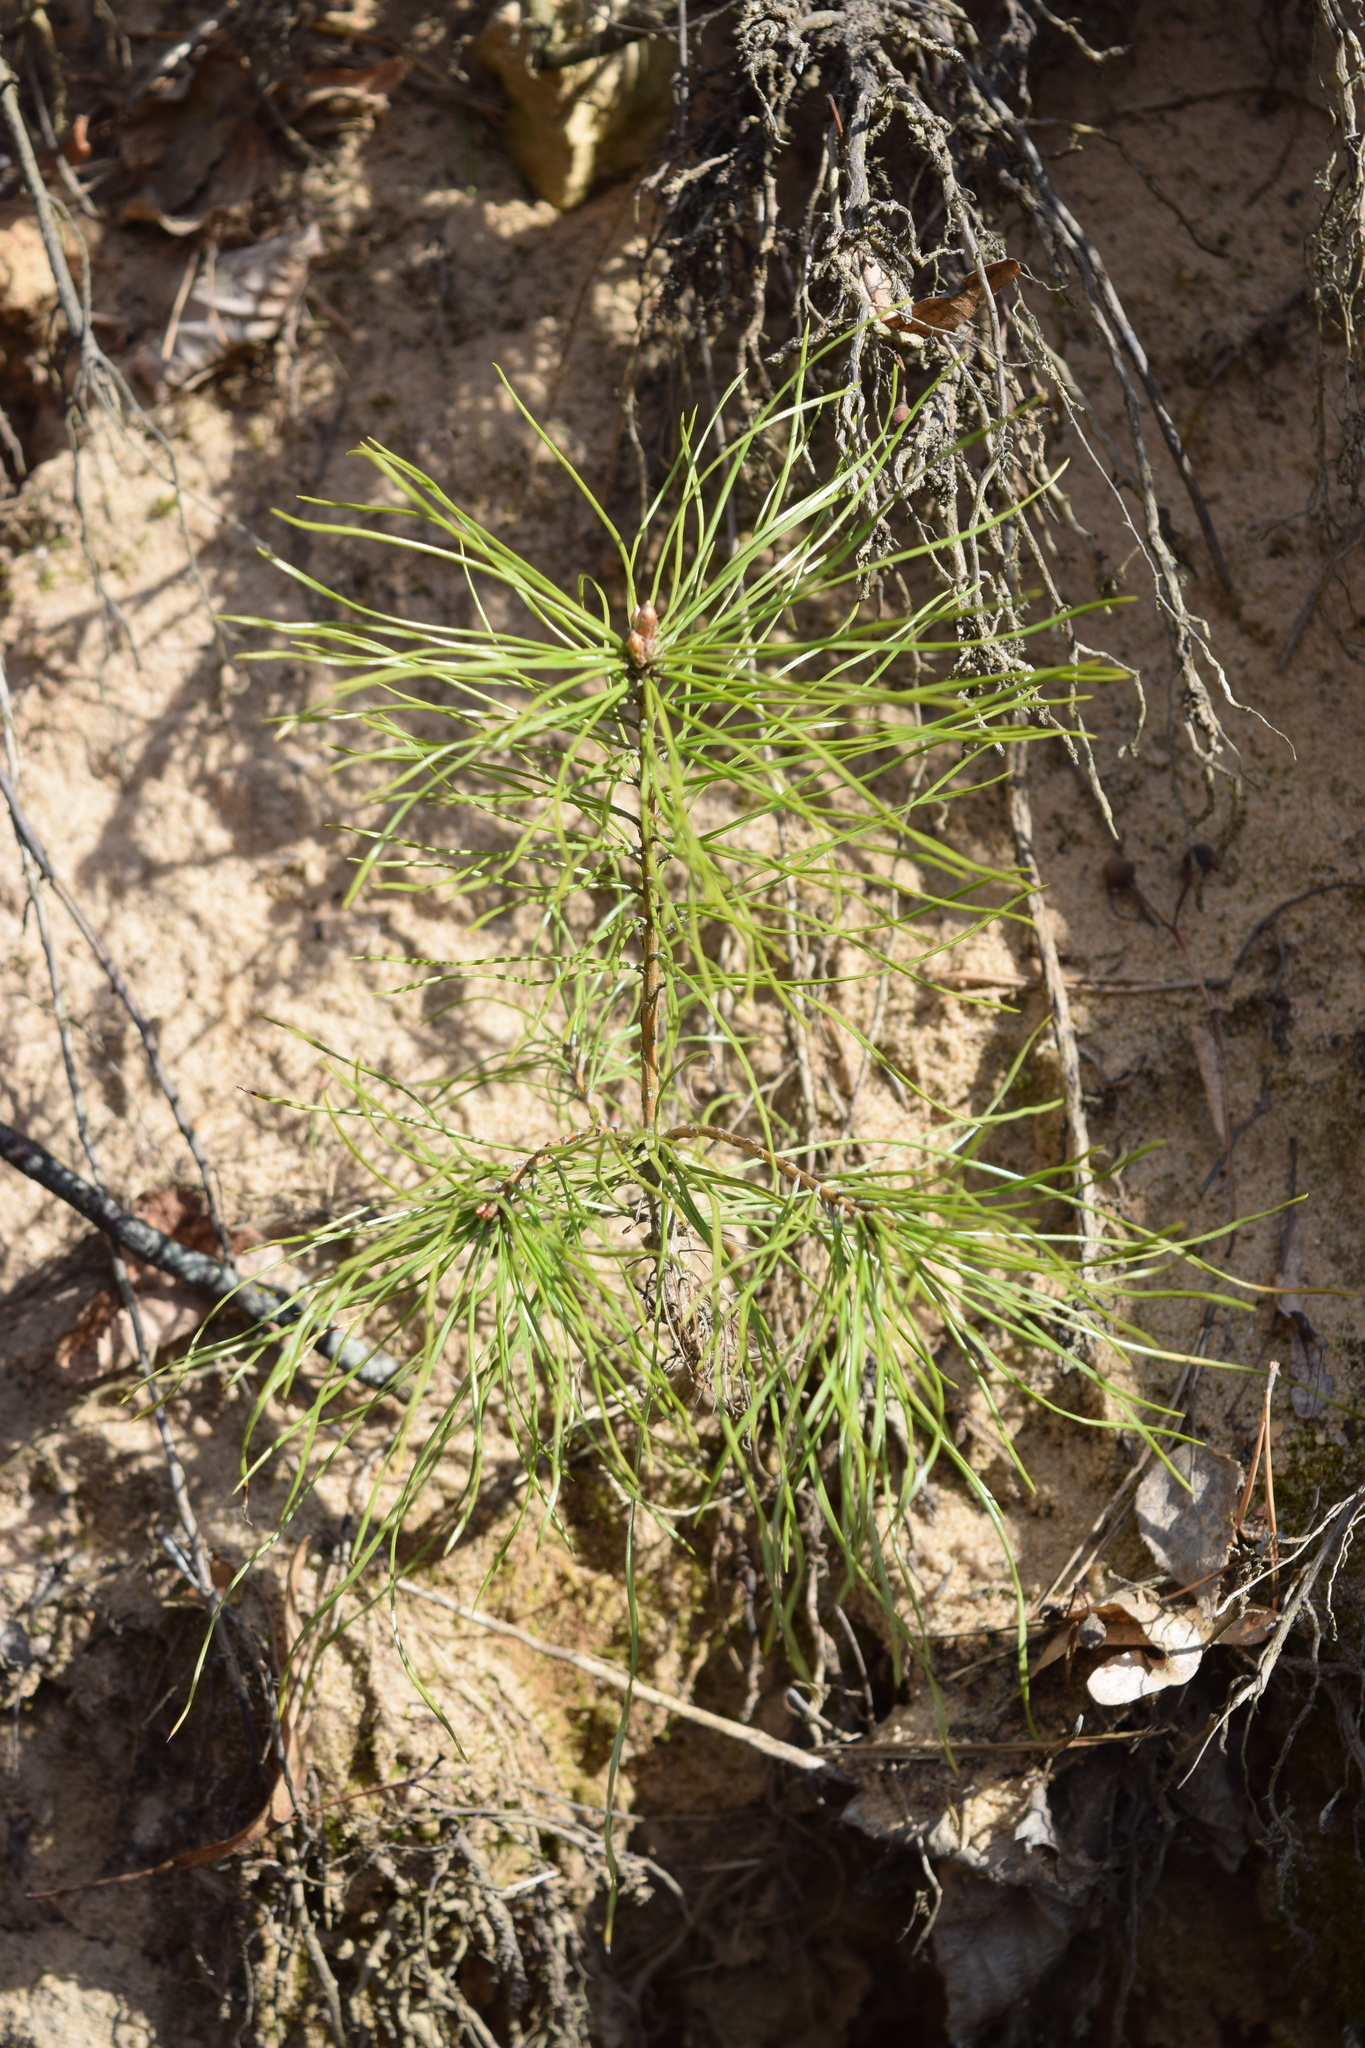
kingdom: Plantae
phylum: Tracheophyta
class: Pinopsida
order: Pinales
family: Pinaceae
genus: Pinus
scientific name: Pinus sylvestris
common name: Scots pine
